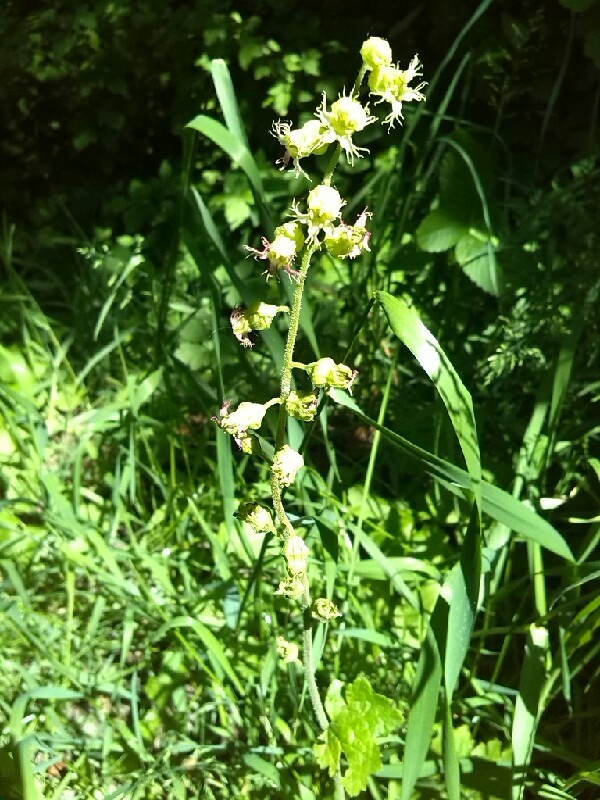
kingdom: Plantae
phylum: Tracheophyta
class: Magnoliopsida
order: Saxifragales
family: Saxifragaceae
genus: Tellima
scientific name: Tellima grandiflora
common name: Fringecups
